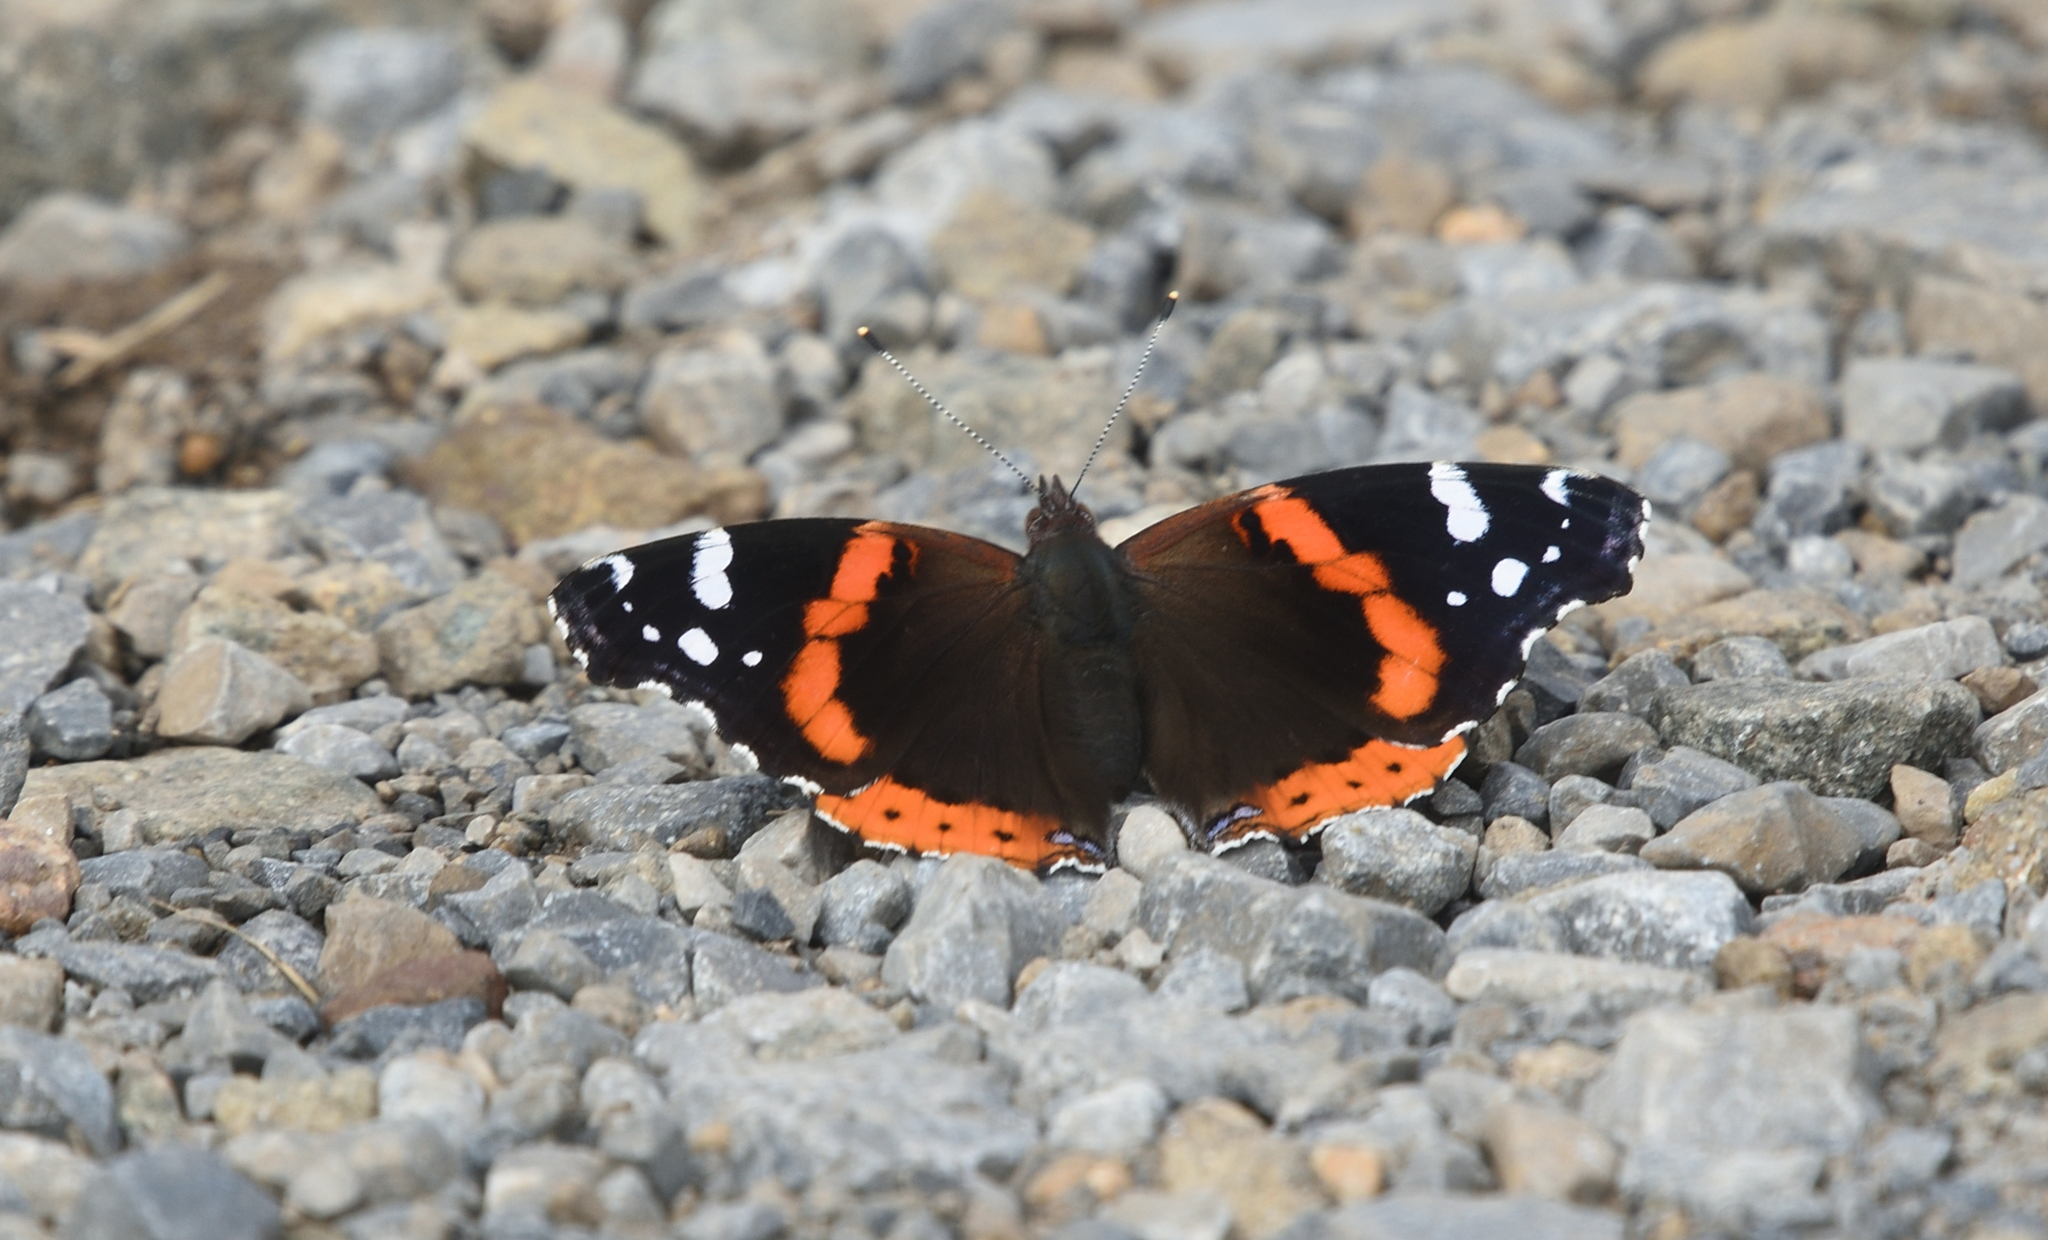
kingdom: Animalia
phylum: Arthropoda
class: Insecta
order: Lepidoptera
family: Nymphalidae
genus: Vanessa
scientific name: Vanessa atalanta
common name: Red admiral
